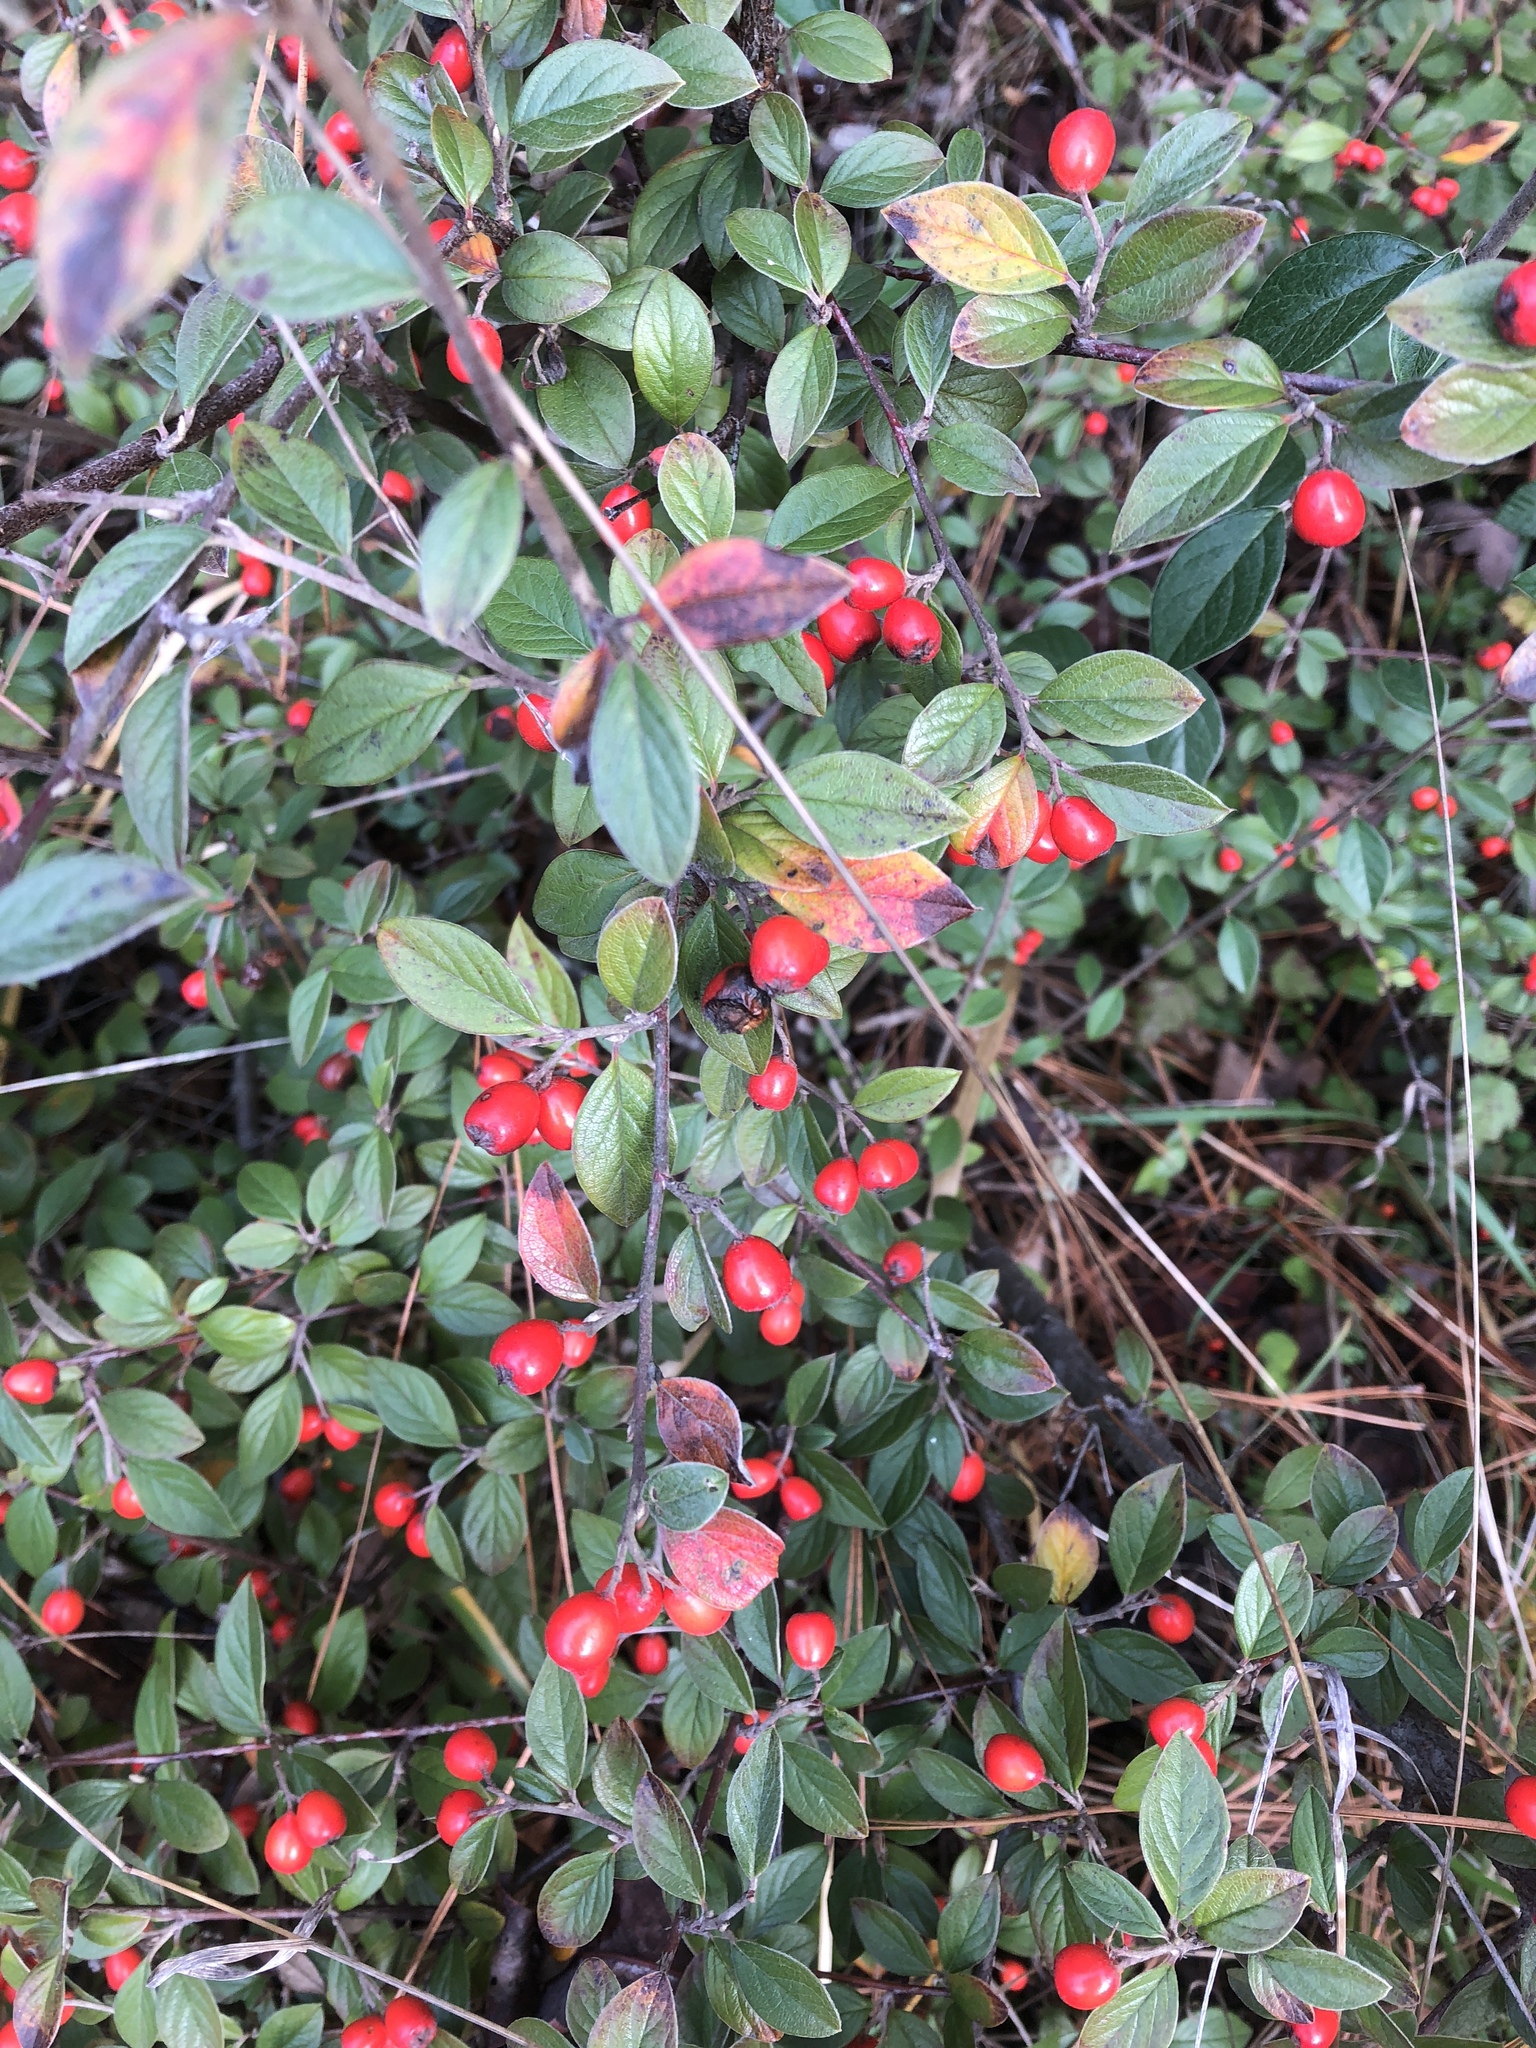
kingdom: Plantae
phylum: Tracheophyta
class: Magnoliopsida
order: Rosales
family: Rosaceae
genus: Cotoneaster
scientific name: Cotoneaster franchetii
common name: Franchet's cotoneaster
